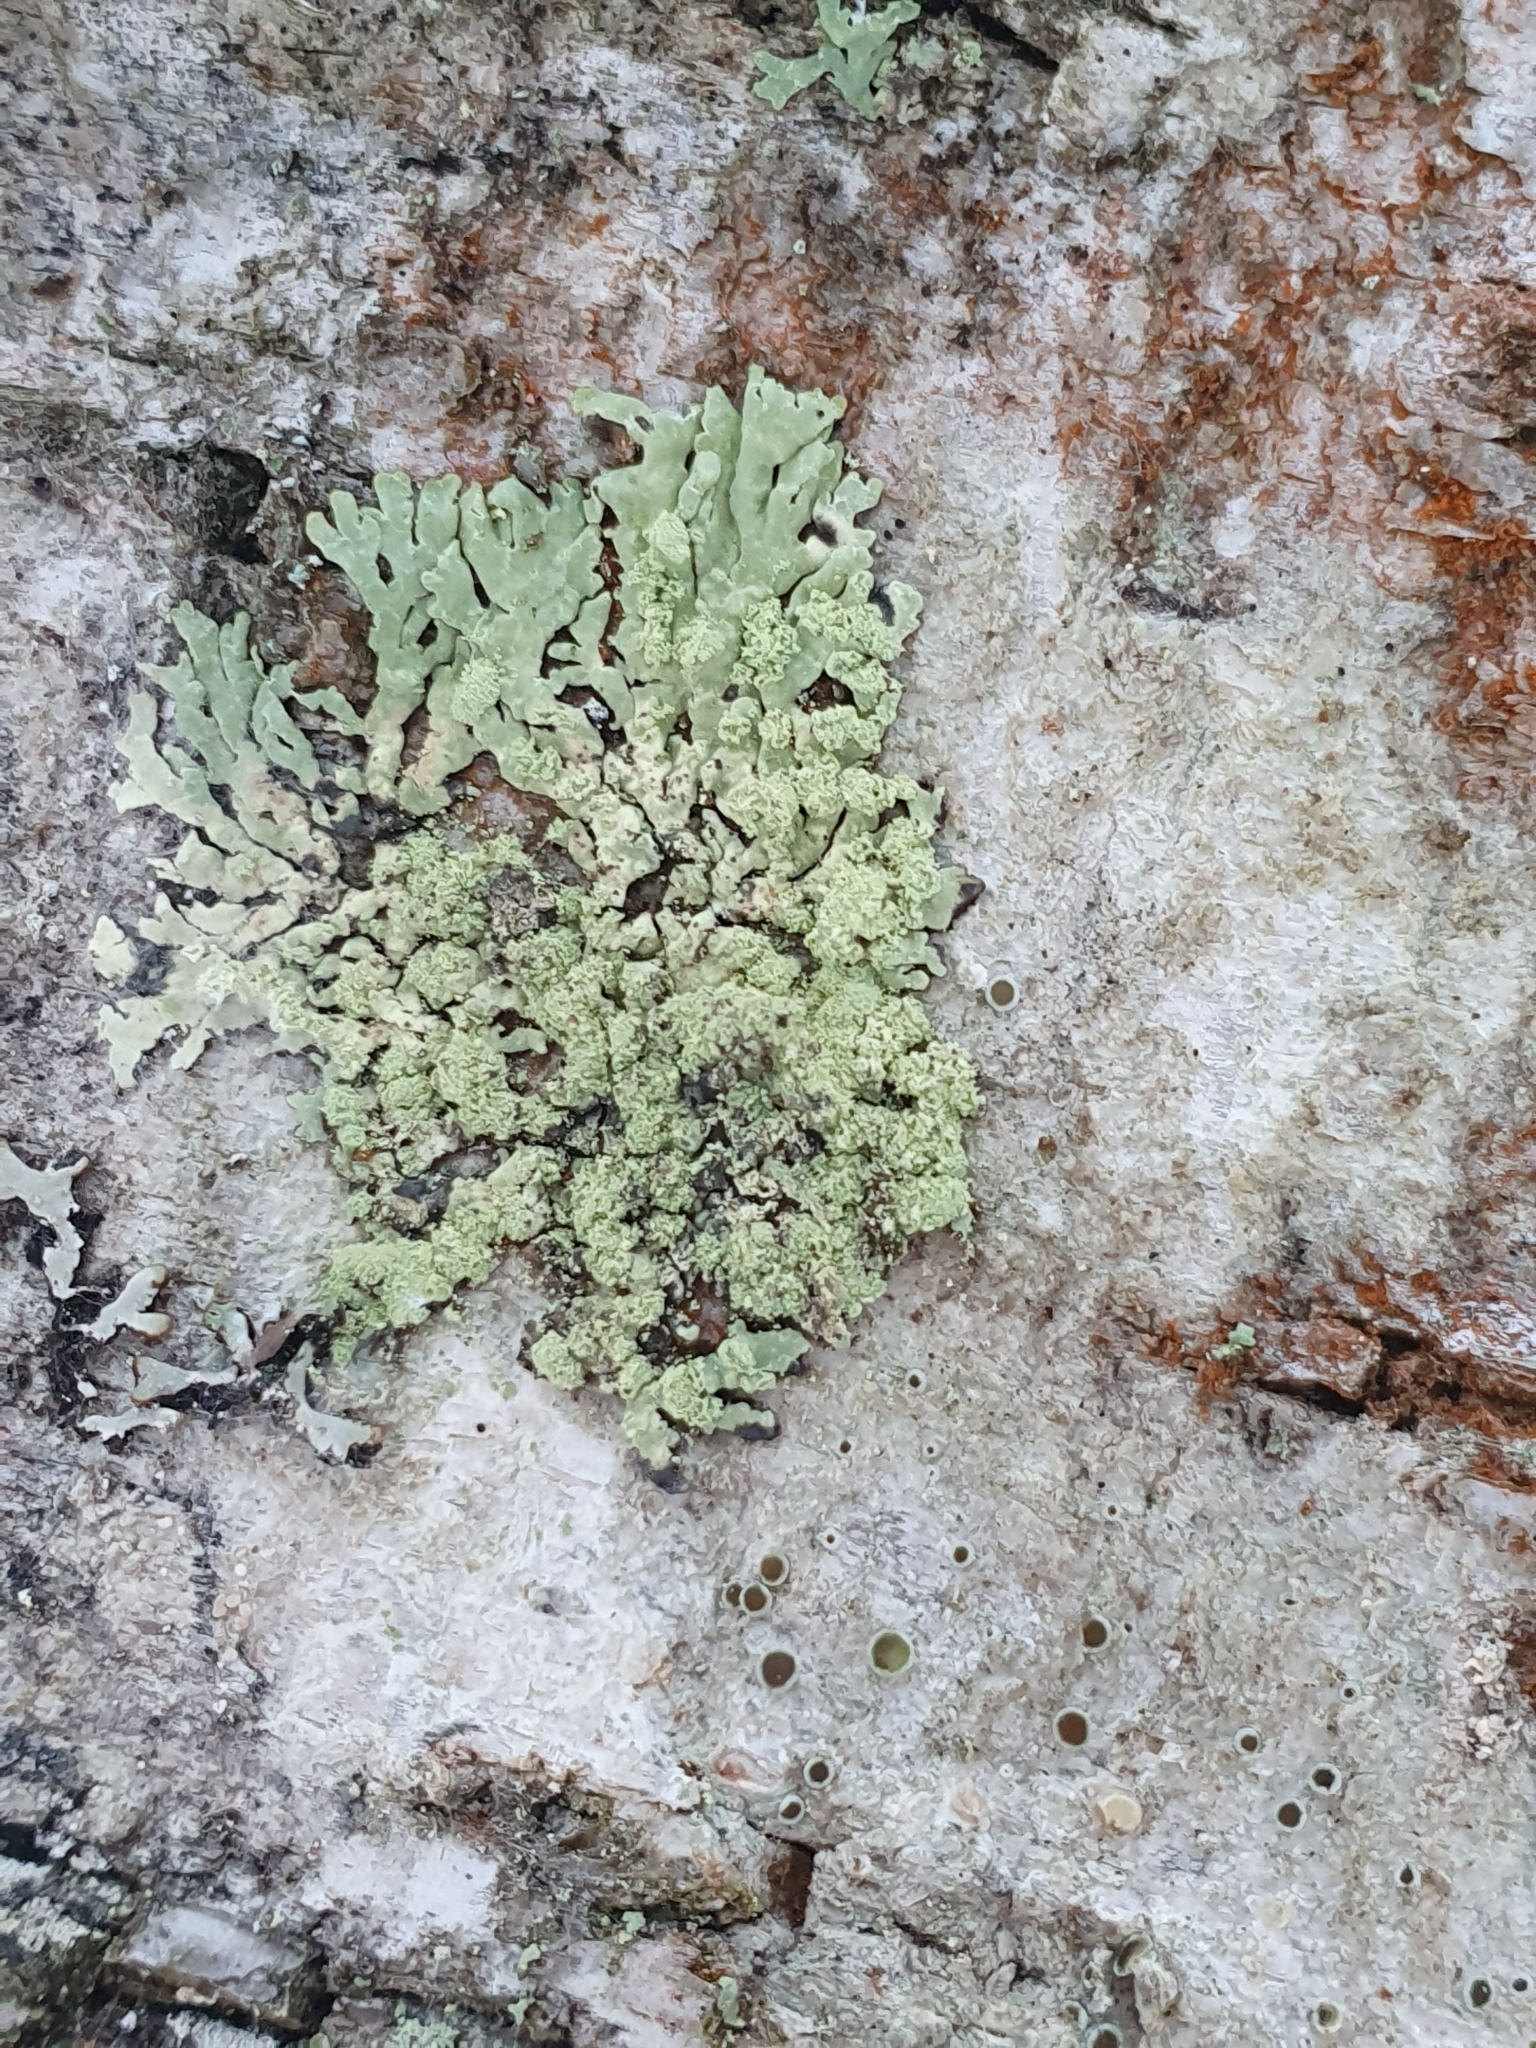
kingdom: Fungi
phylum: Ascomycota
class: Lecanoromycetes
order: Lecanorales
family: Parmeliaceae
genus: Parmeliopsis
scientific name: Parmeliopsis ambigua
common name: Green starburst lichen
